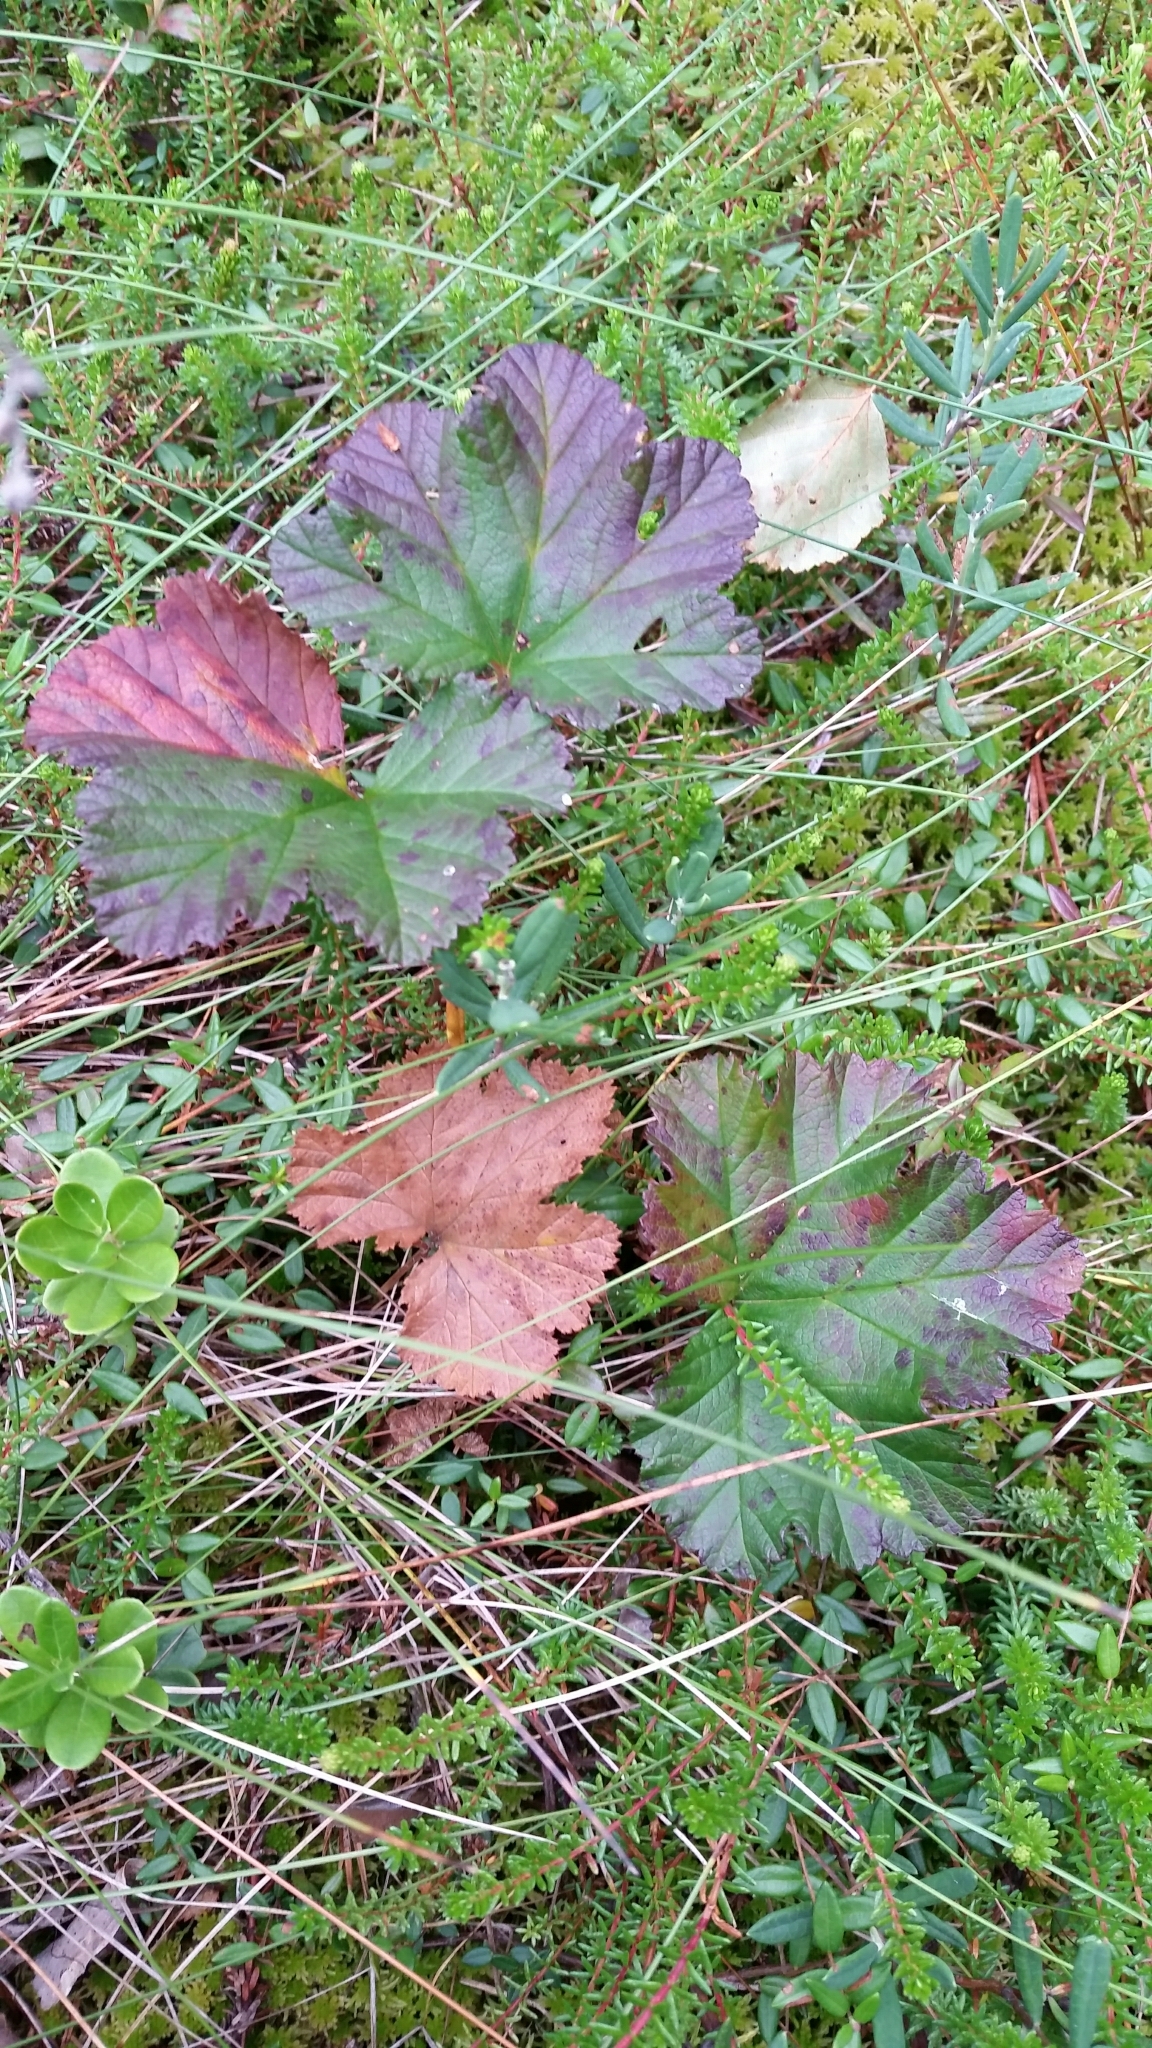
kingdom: Plantae
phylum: Tracheophyta
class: Magnoliopsida
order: Rosales
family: Rosaceae
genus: Rubus
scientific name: Rubus chamaemorus
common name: Cloudberry
